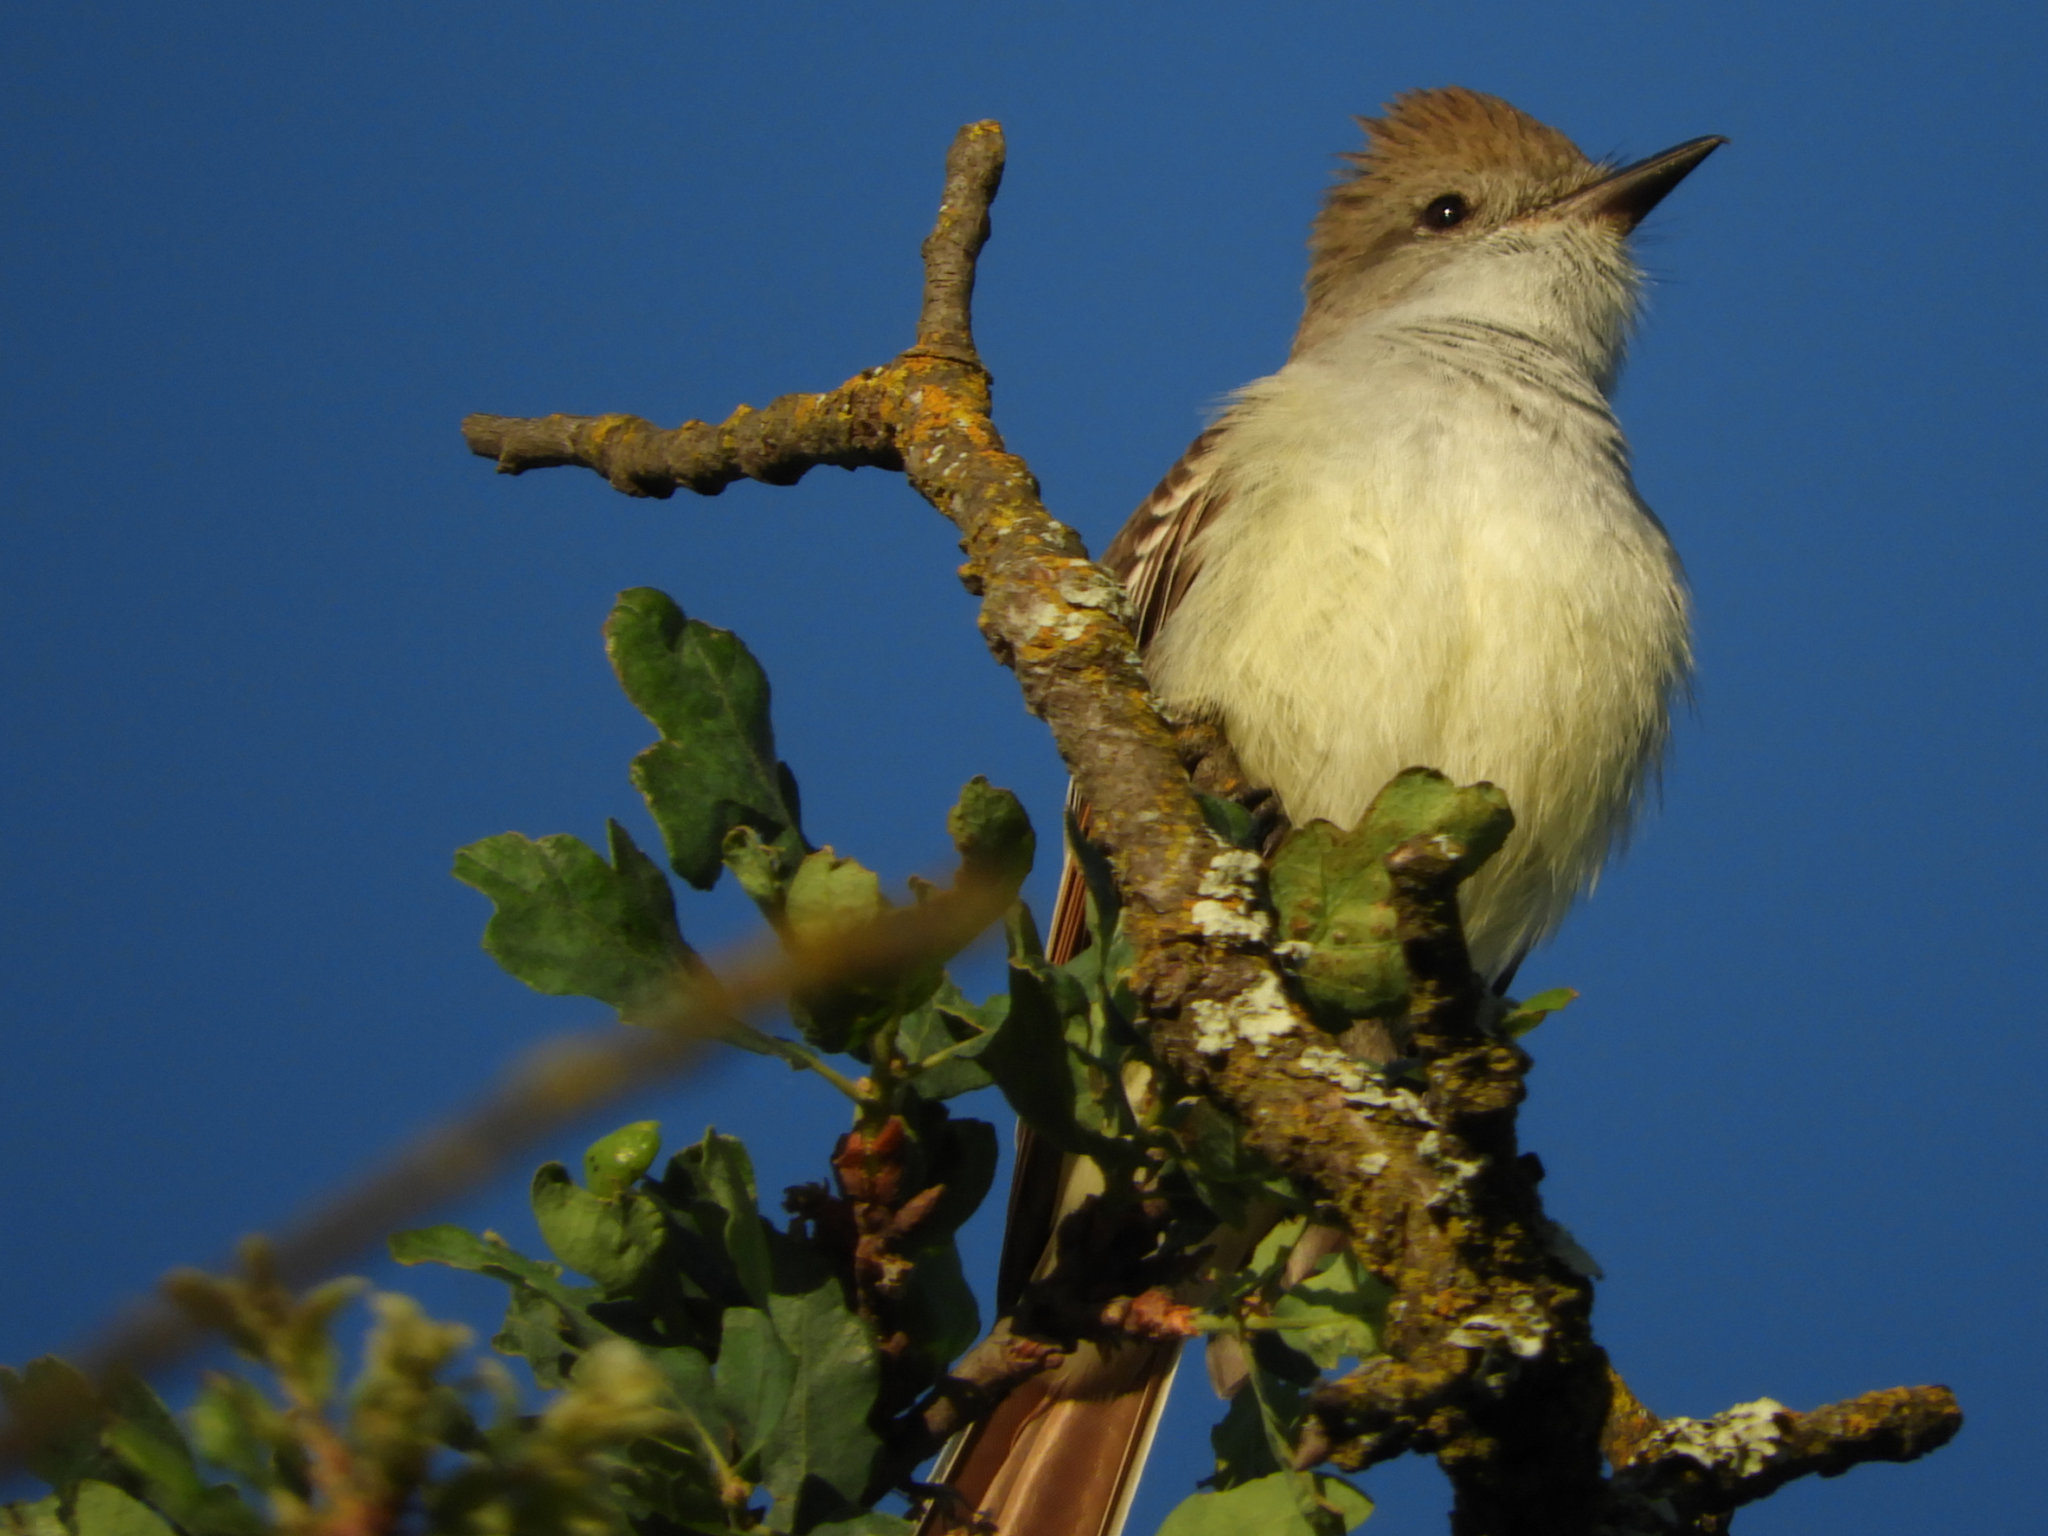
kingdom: Animalia
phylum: Chordata
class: Aves
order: Passeriformes
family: Tyrannidae
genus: Myiarchus
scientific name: Myiarchus cinerascens
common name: Ash-throated flycatcher
